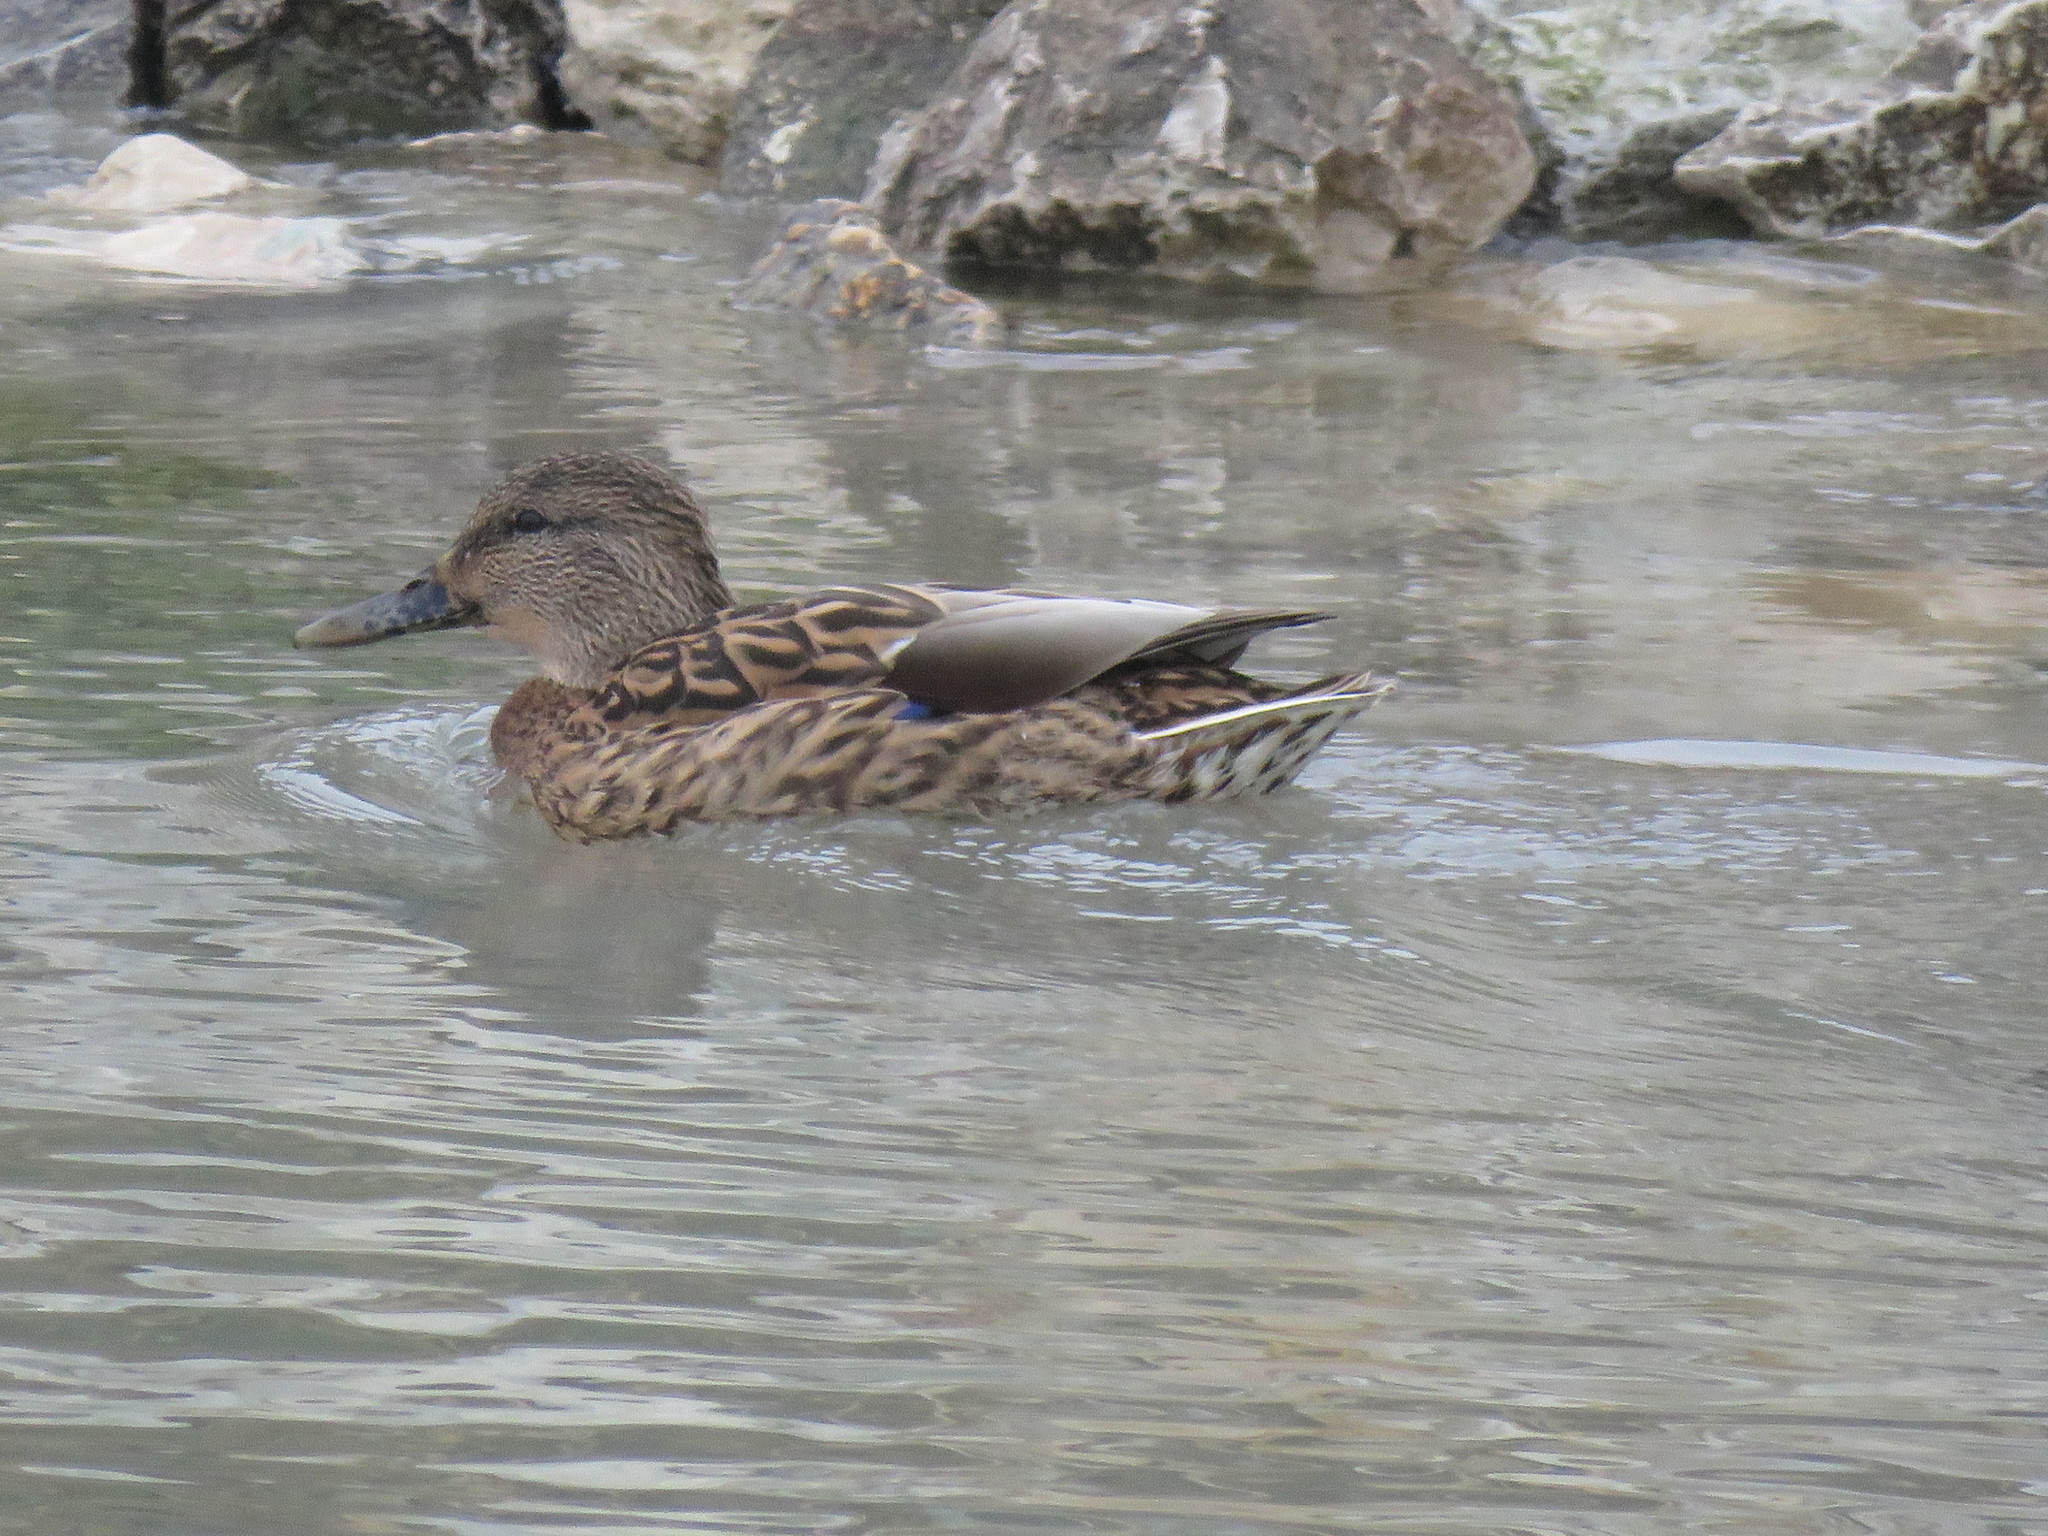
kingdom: Animalia
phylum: Chordata
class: Aves
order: Anseriformes
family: Anatidae
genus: Anas
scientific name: Anas platyrhynchos
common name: Mallard
